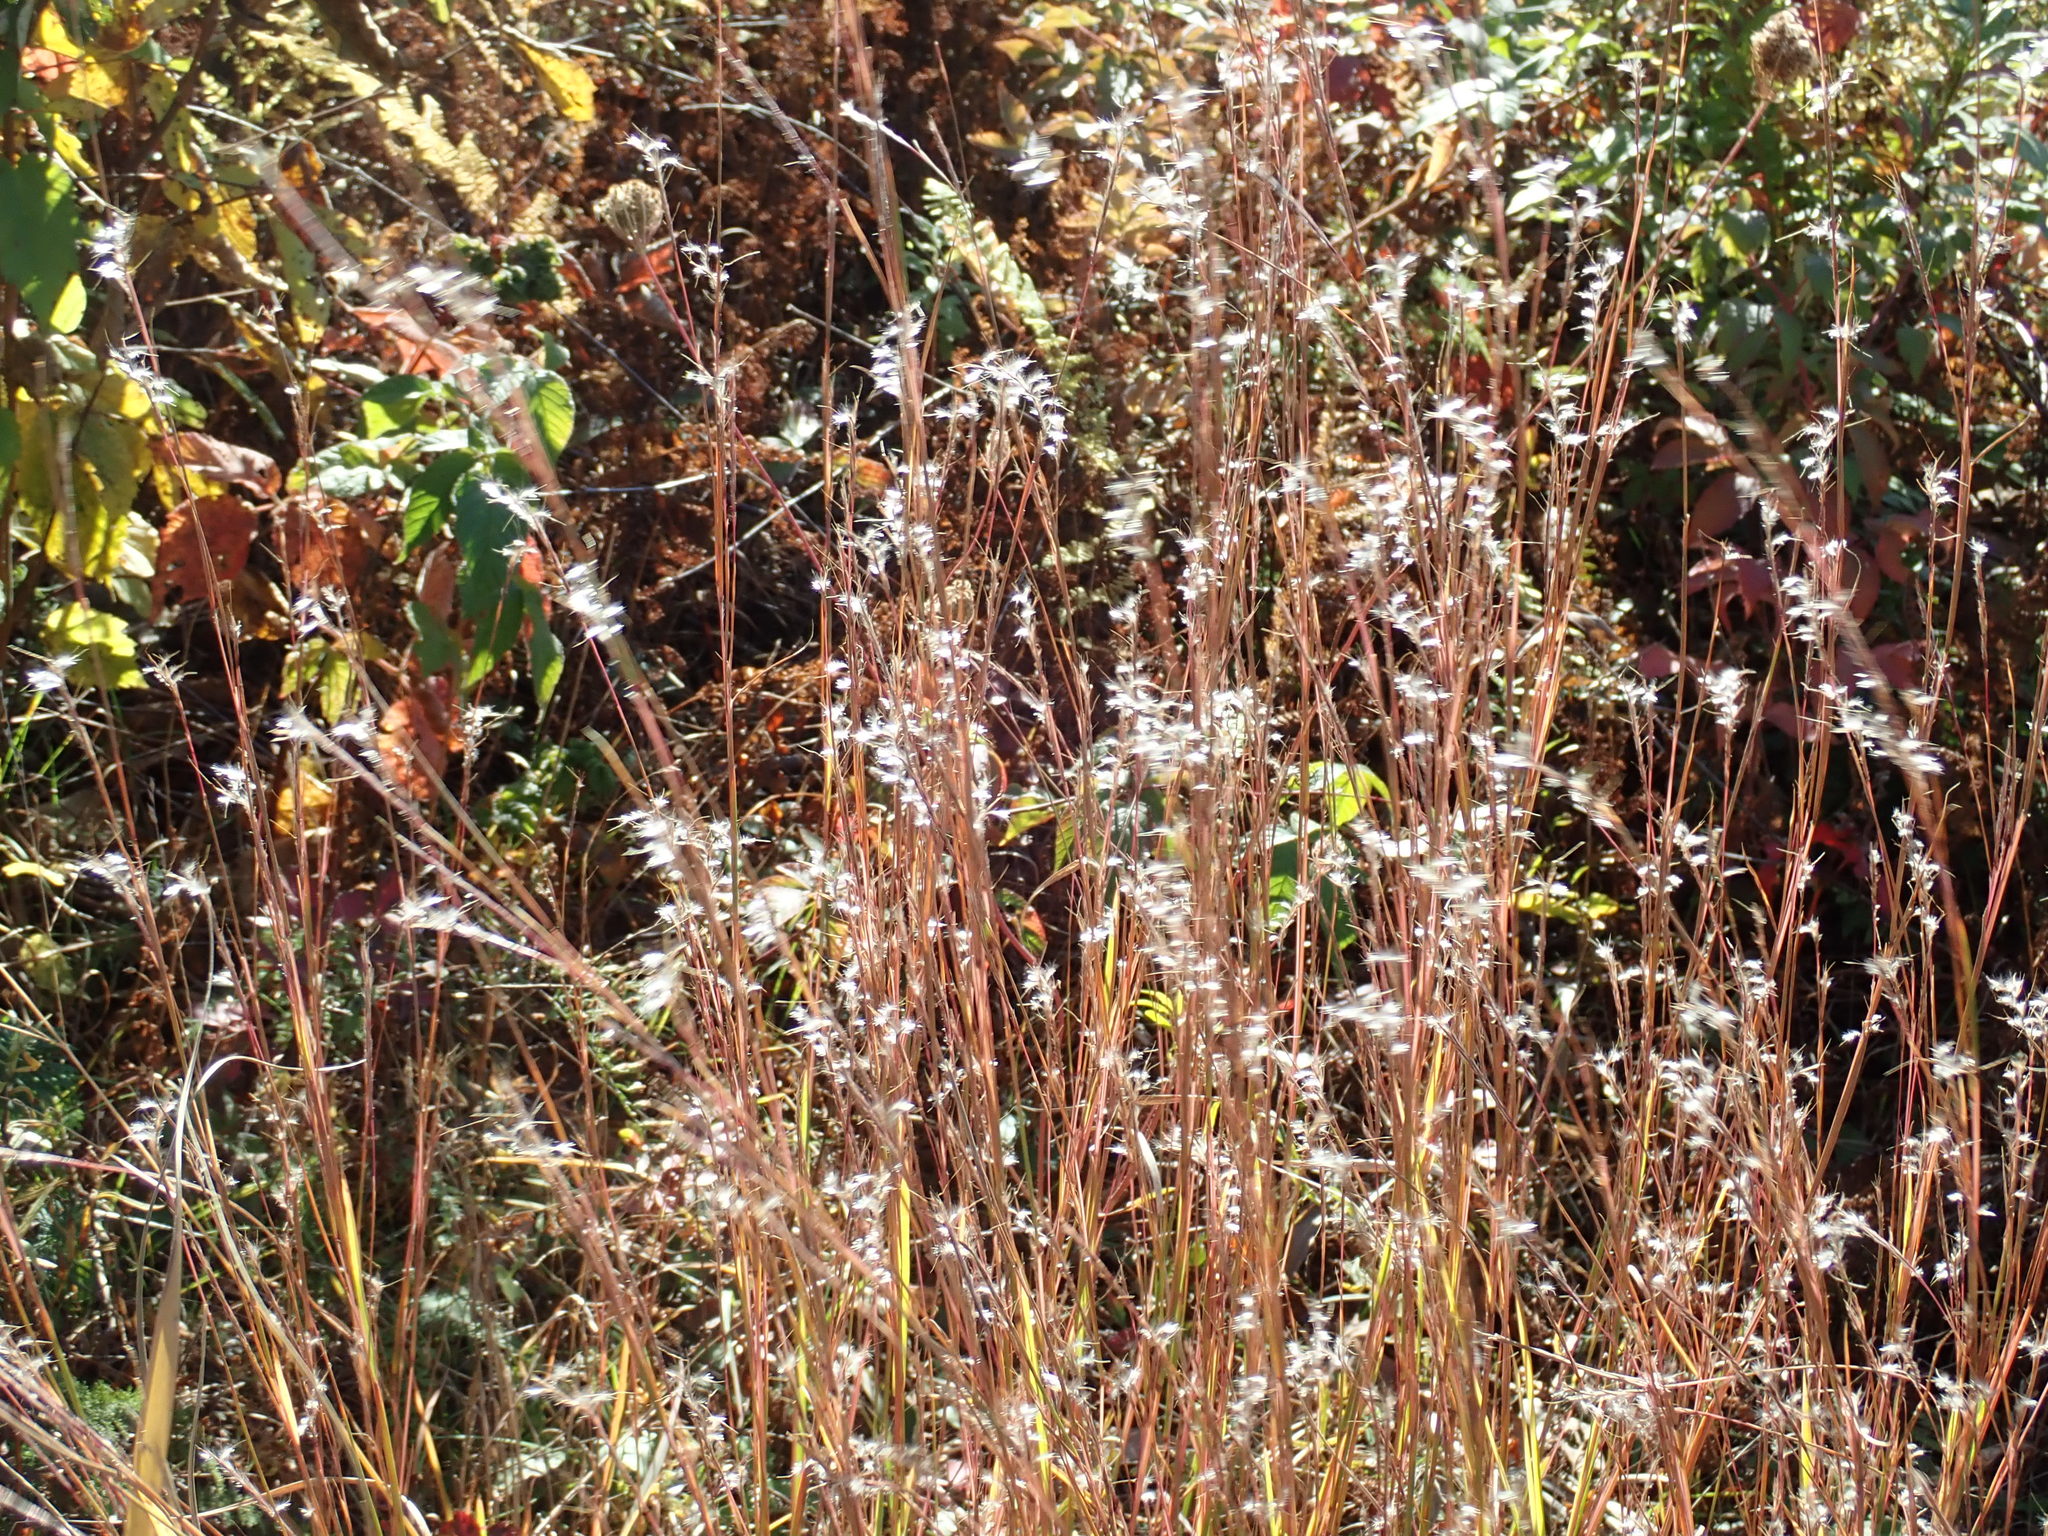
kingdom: Plantae
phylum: Tracheophyta
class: Liliopsida
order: Poales
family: Poaceae
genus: Schizachyrium
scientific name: Schizachyrium scoparium
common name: Little bluestem
